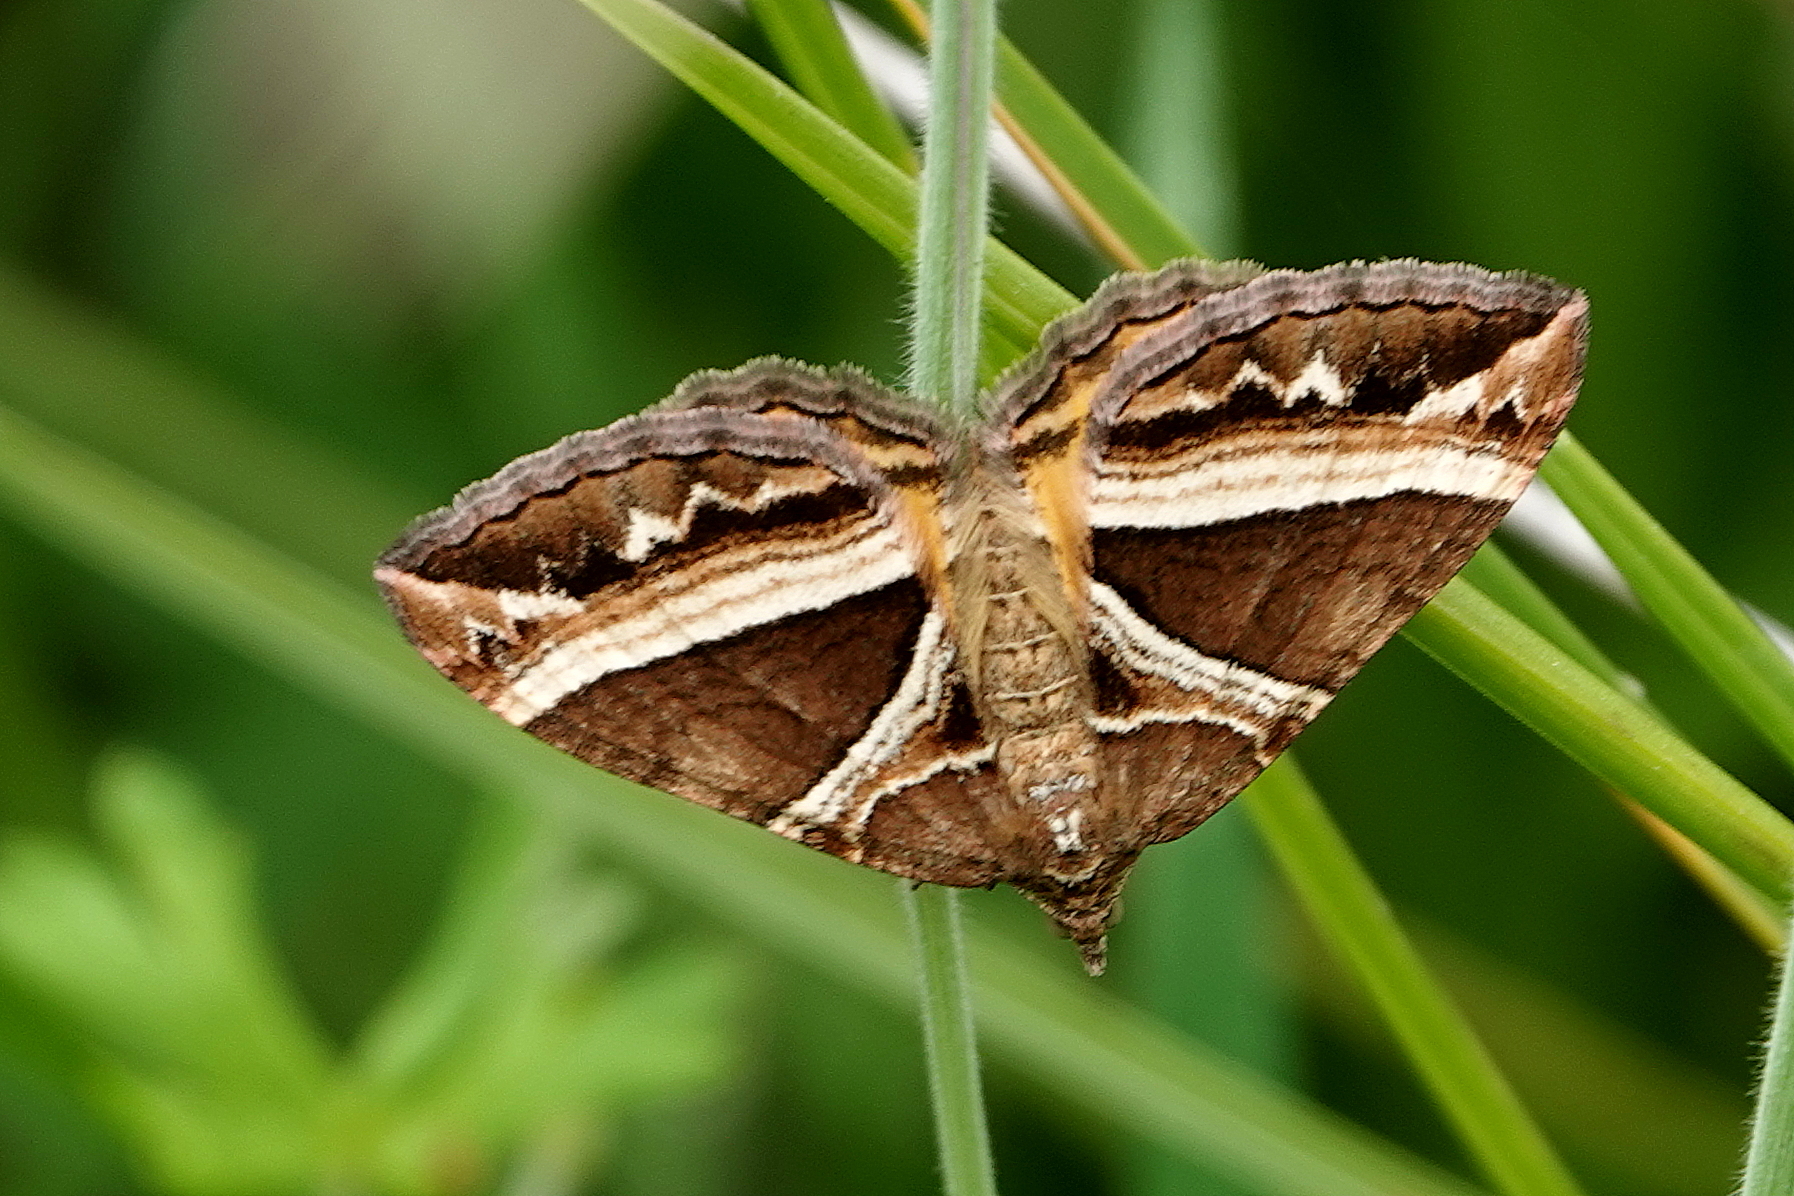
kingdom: Animalia
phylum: Arthropoda
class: Insecta
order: Lepidoptera
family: Geometridae
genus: Chrysolarentia
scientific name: Chrysolarentia conifasciata
